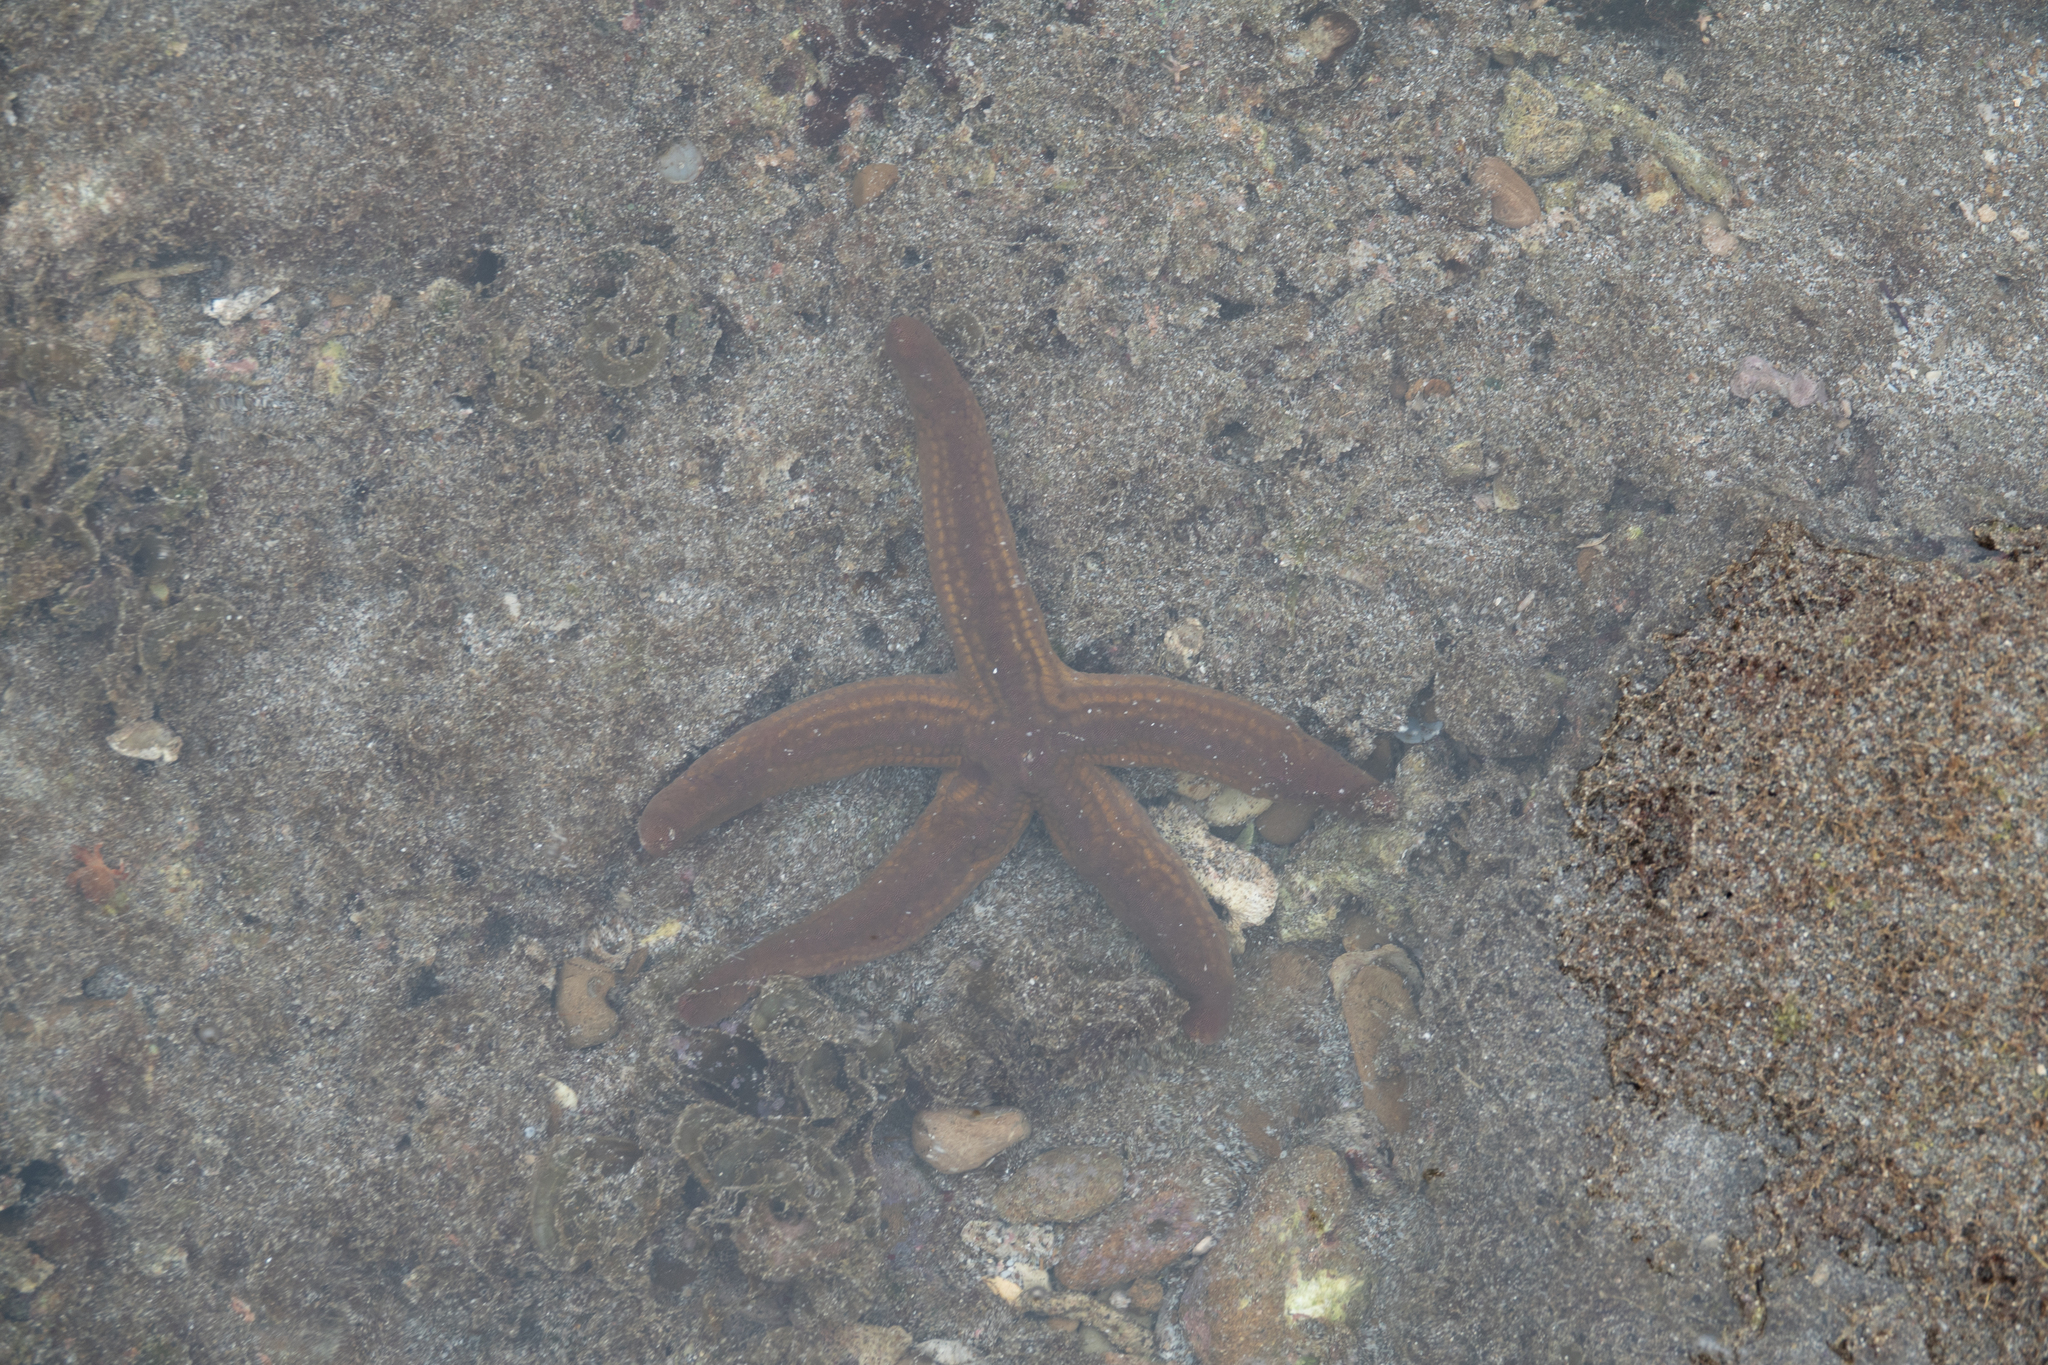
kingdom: Animalia
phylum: Echinodermata
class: Asteroidea
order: Valvatida
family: Ophidiasteridae
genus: Pharia
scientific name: Pharia pyramidata
